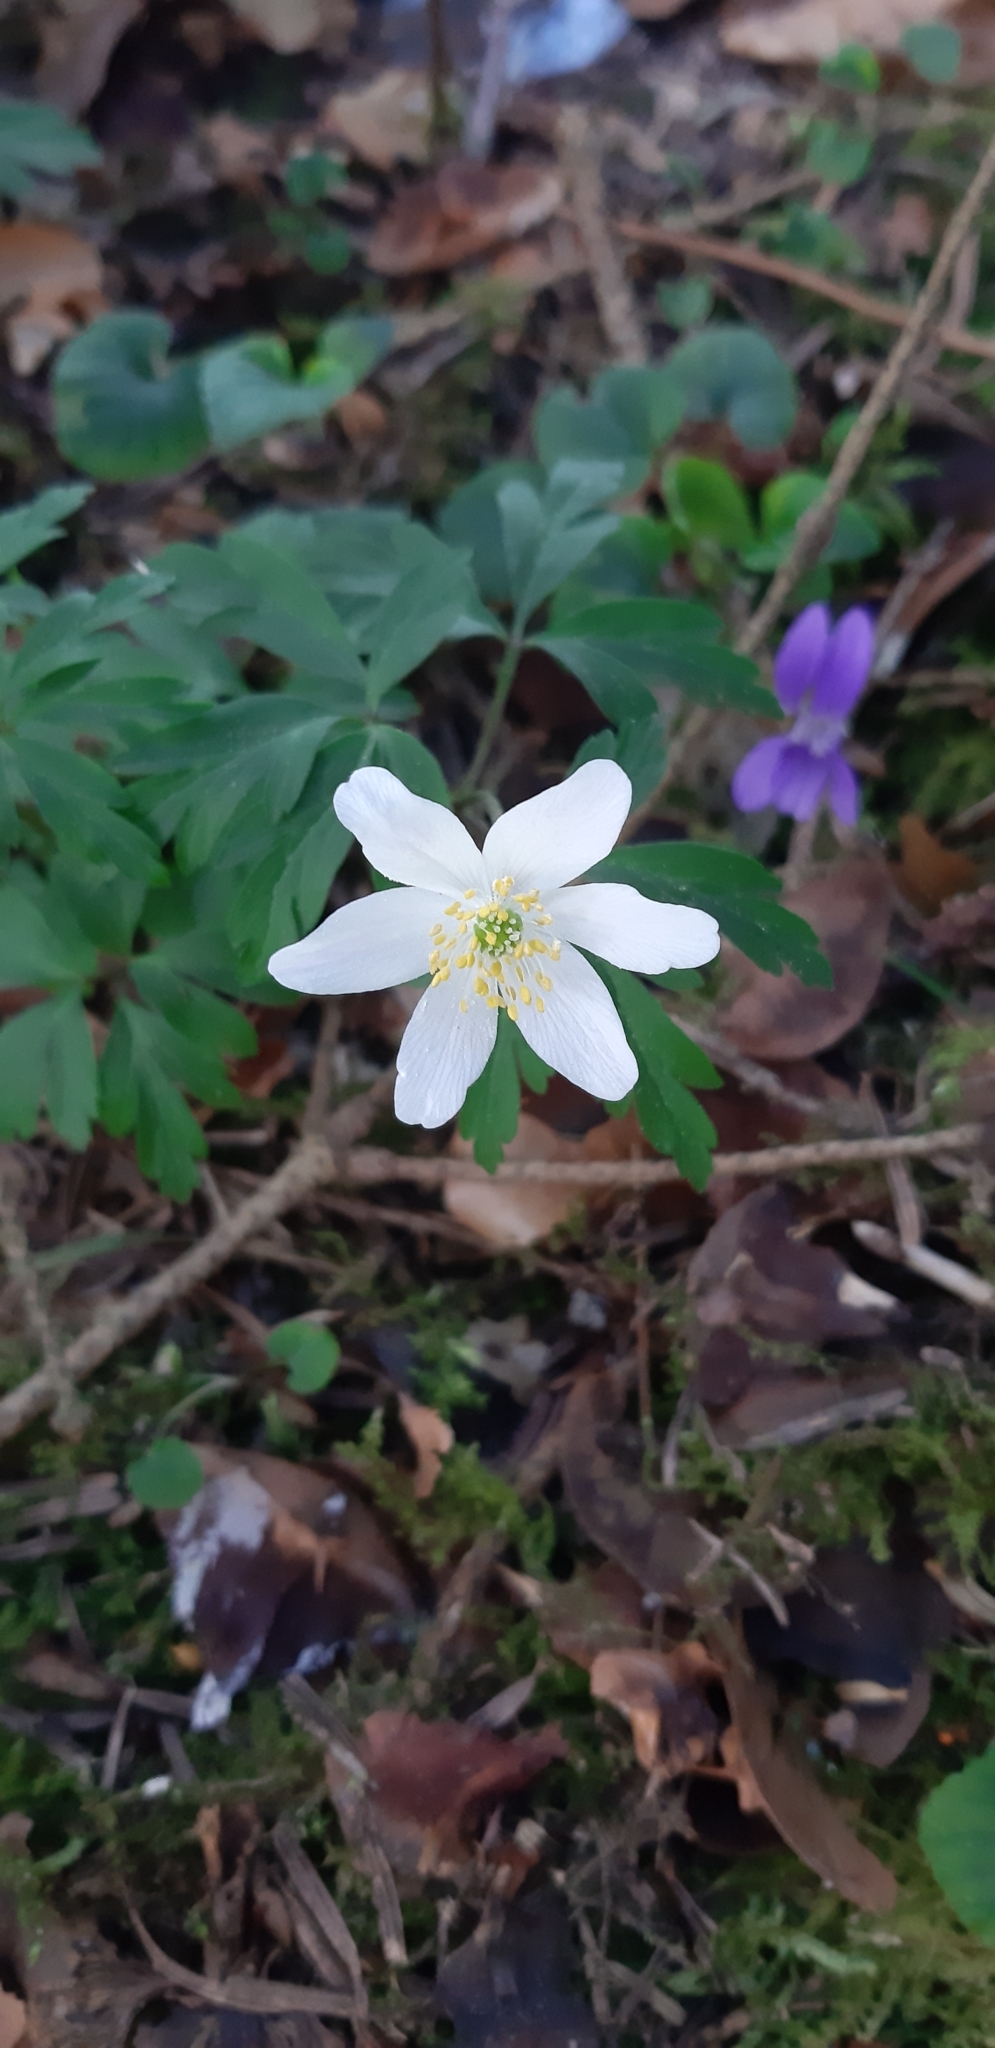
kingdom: Plantae
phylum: Tracheophyta
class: Magnoliopsida
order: Ranunculales
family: Ranunculaceae
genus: Anemone
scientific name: Anemone nemorosa
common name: Wood anemone
